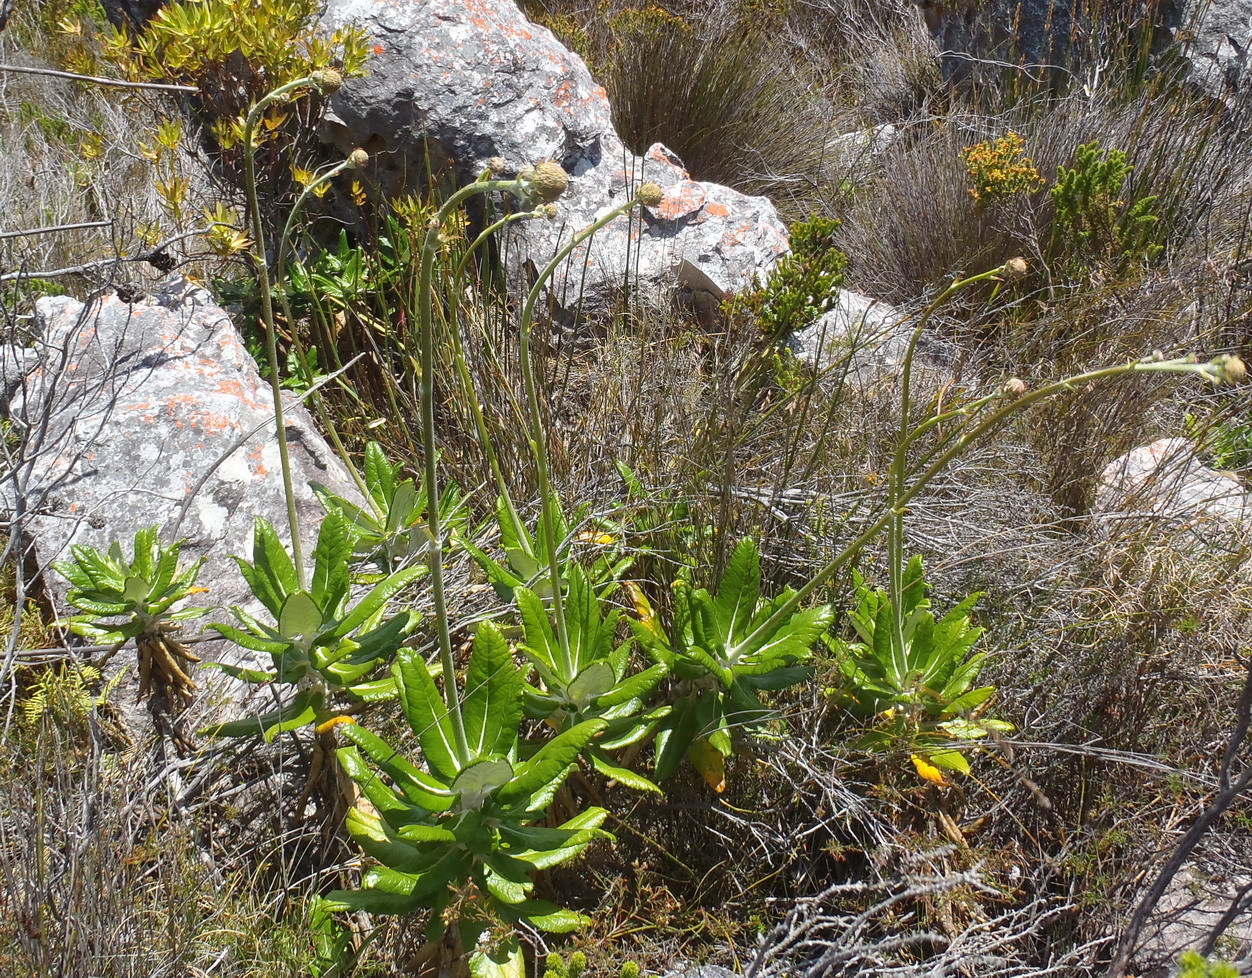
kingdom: Plantae
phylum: Tracheophyta
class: Magnoliopsida
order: Apiales
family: Apiaceae
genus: Hermas
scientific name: Hermas villosa
